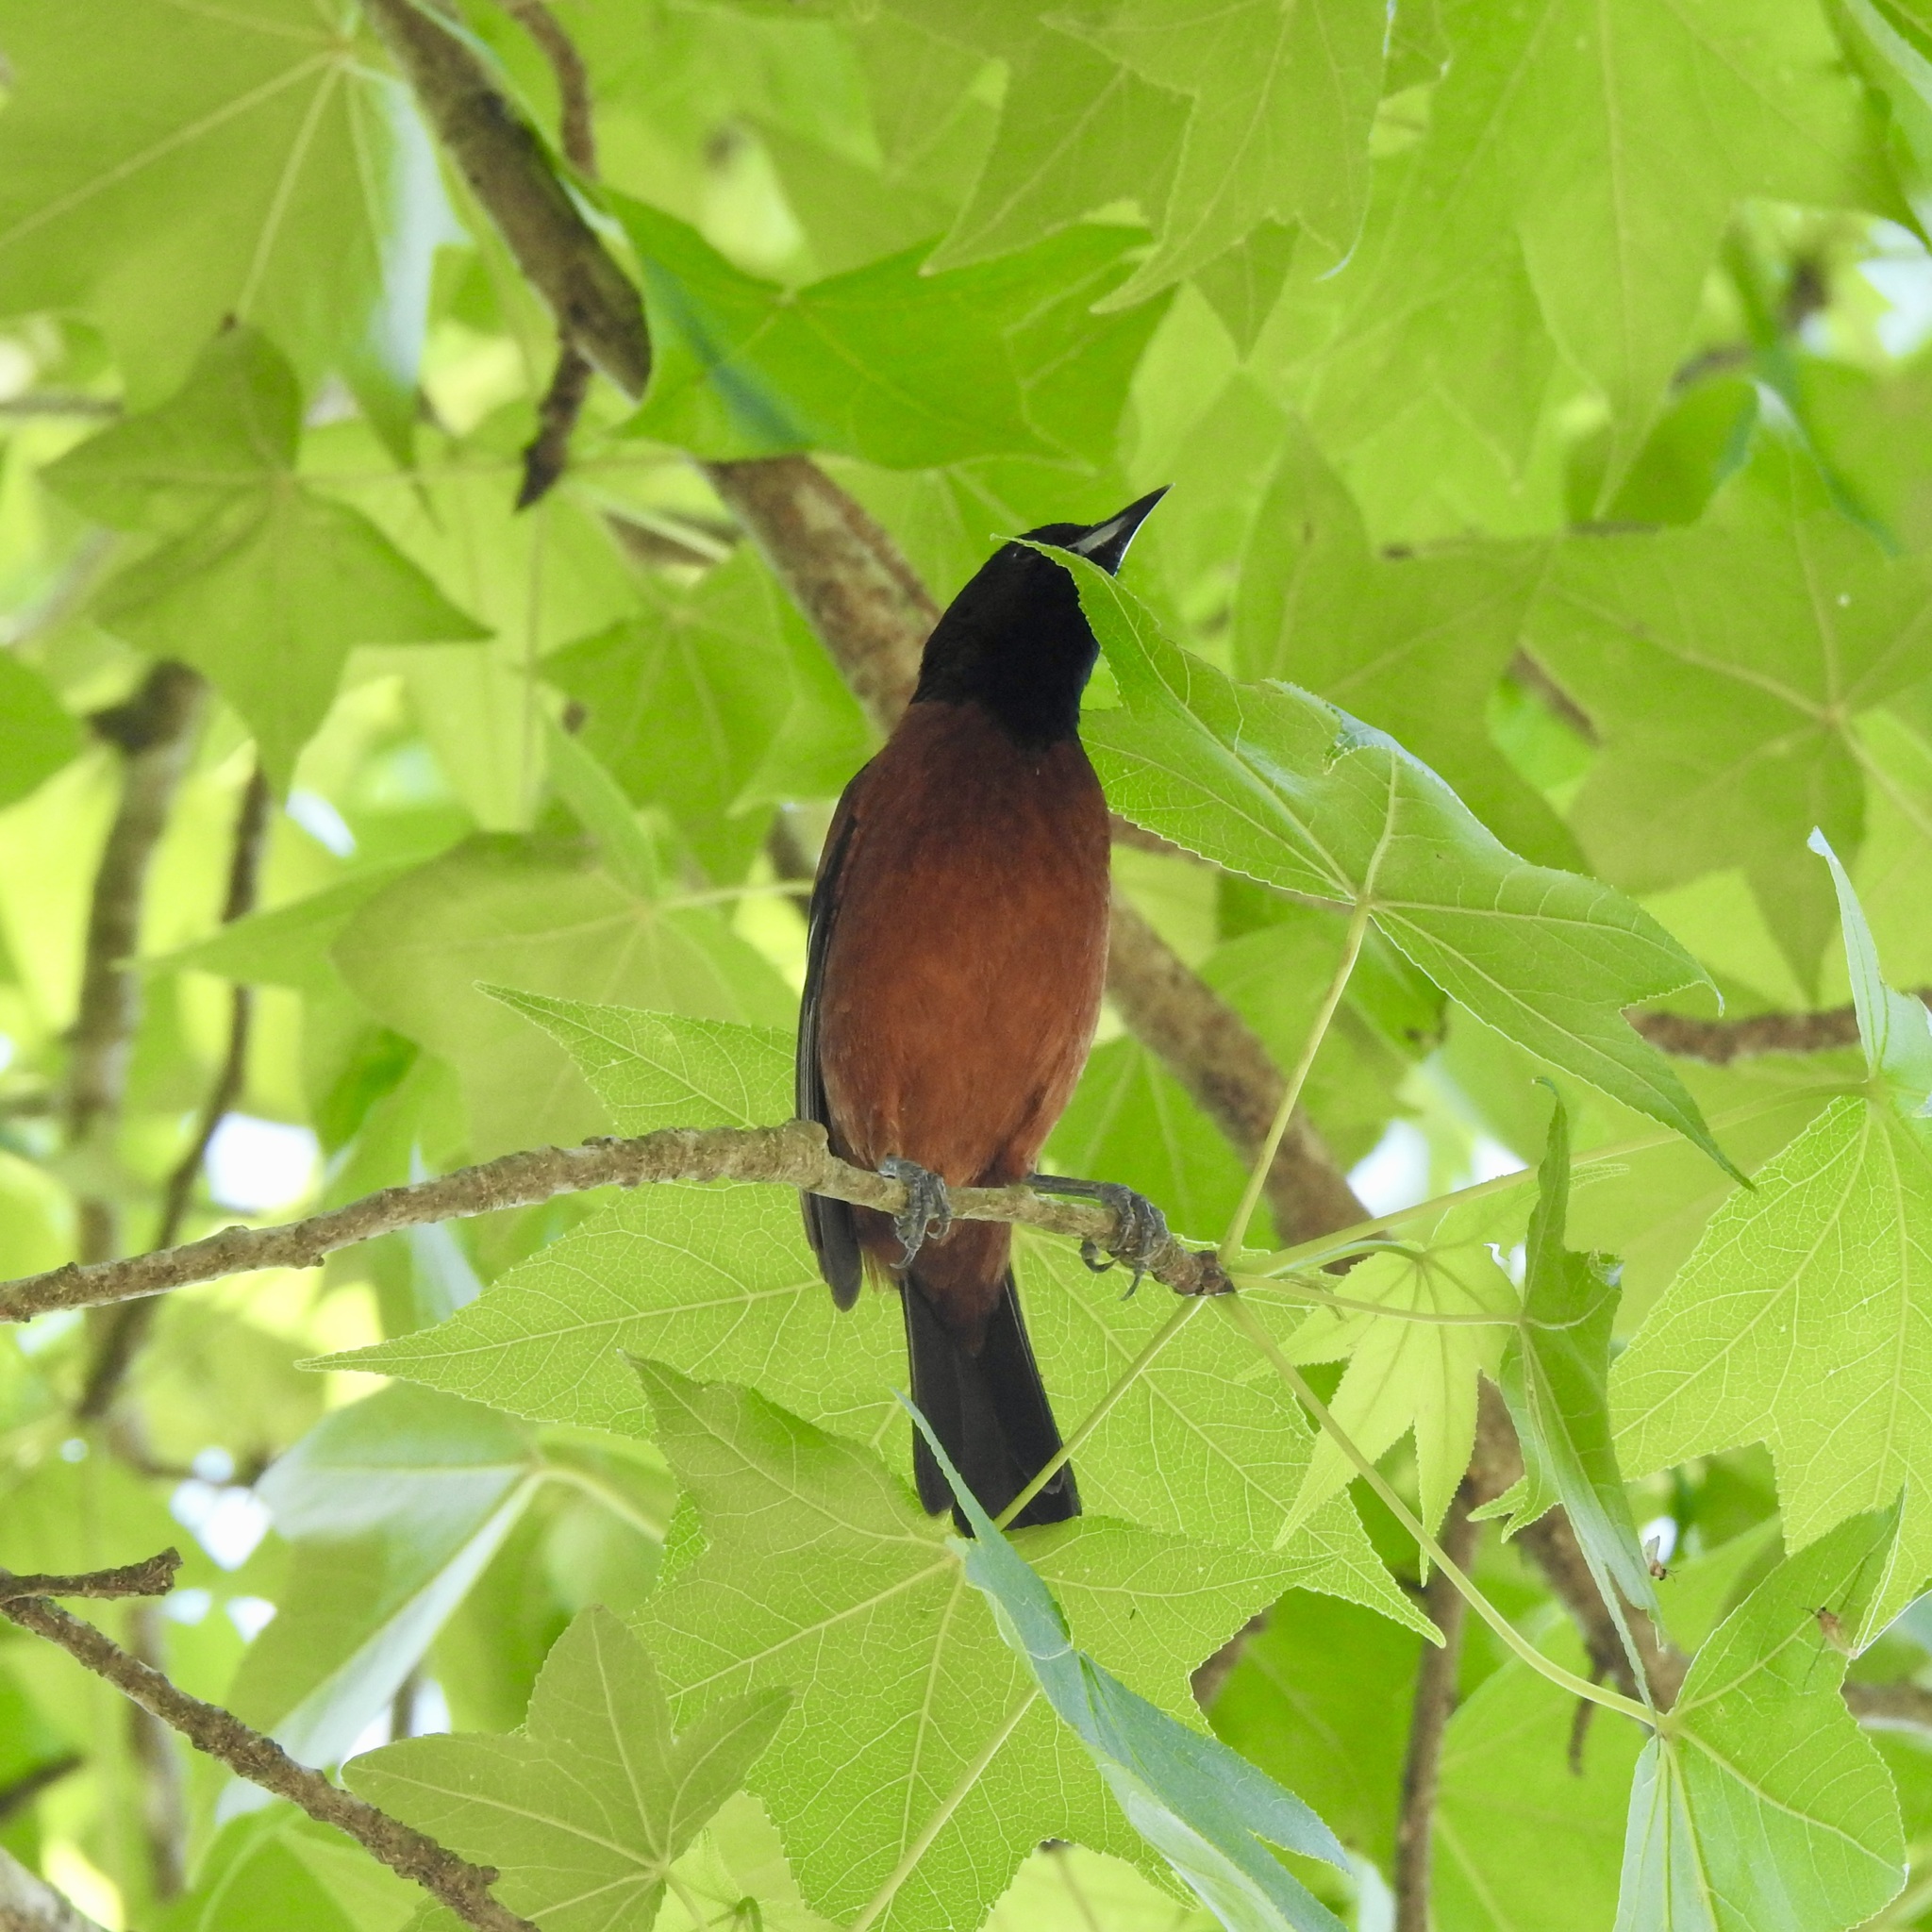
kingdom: Animalia
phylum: Chordata
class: Aves
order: Passeriformes
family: Icteridae
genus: Icterus
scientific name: Icterus spurius
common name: Orchard oriole
